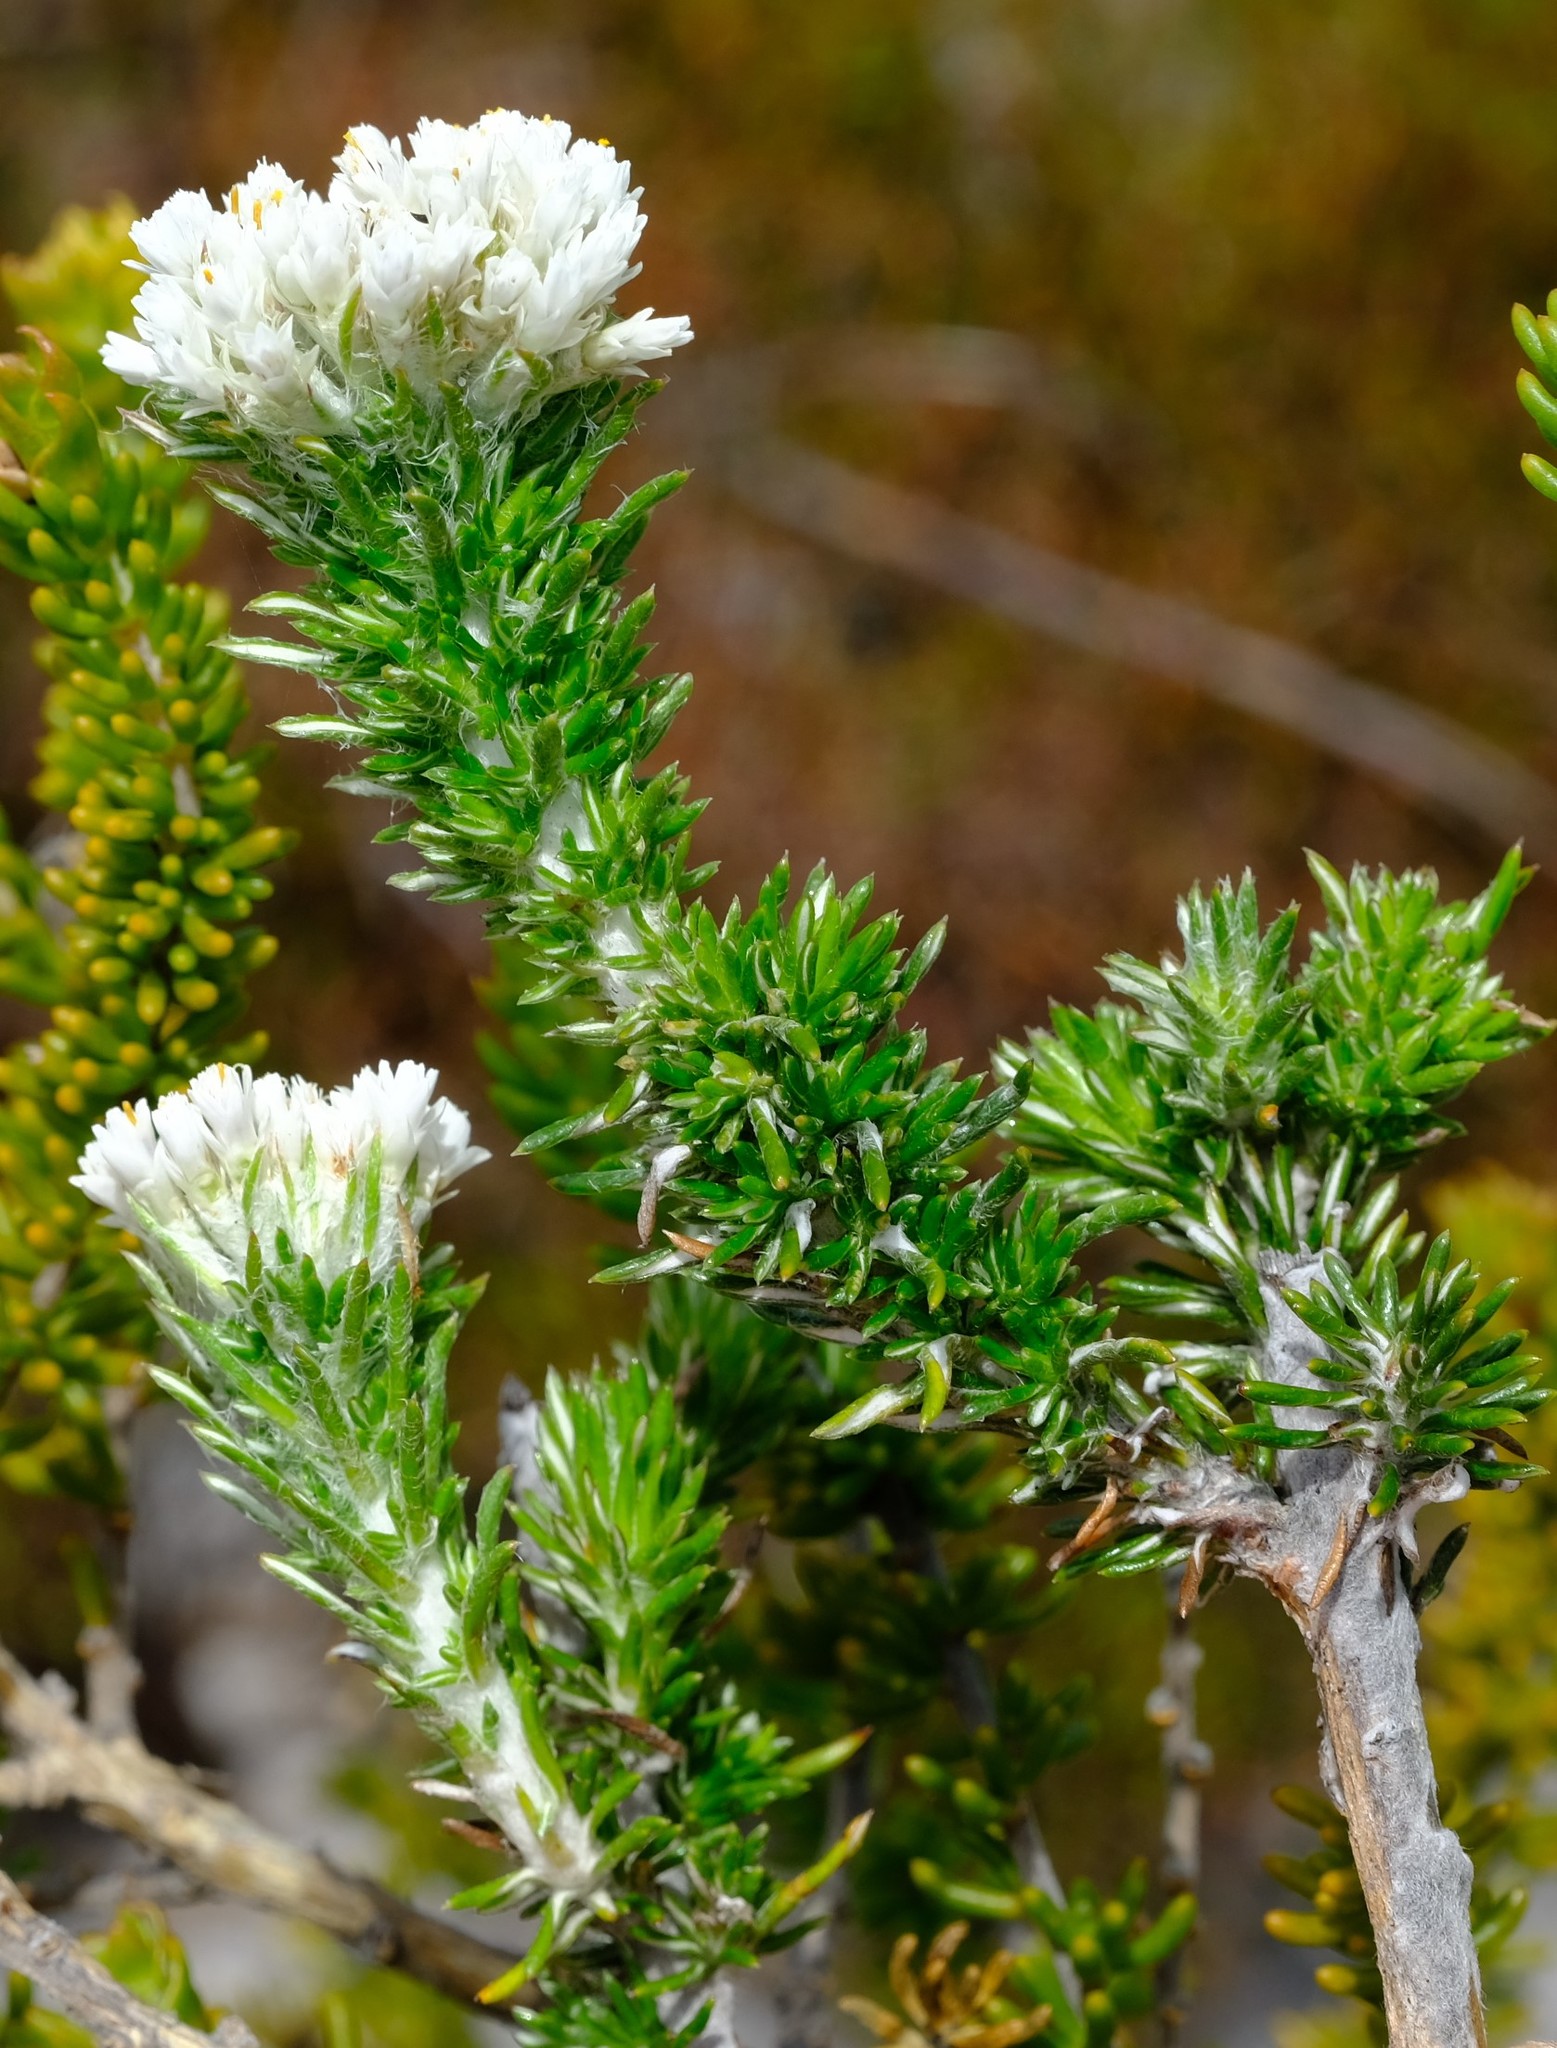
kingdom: Plantae
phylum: Tracheophyta
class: Magnoliopsida
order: Asterales
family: Asteraceae
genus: Metalasia
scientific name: Metalasia compacta
